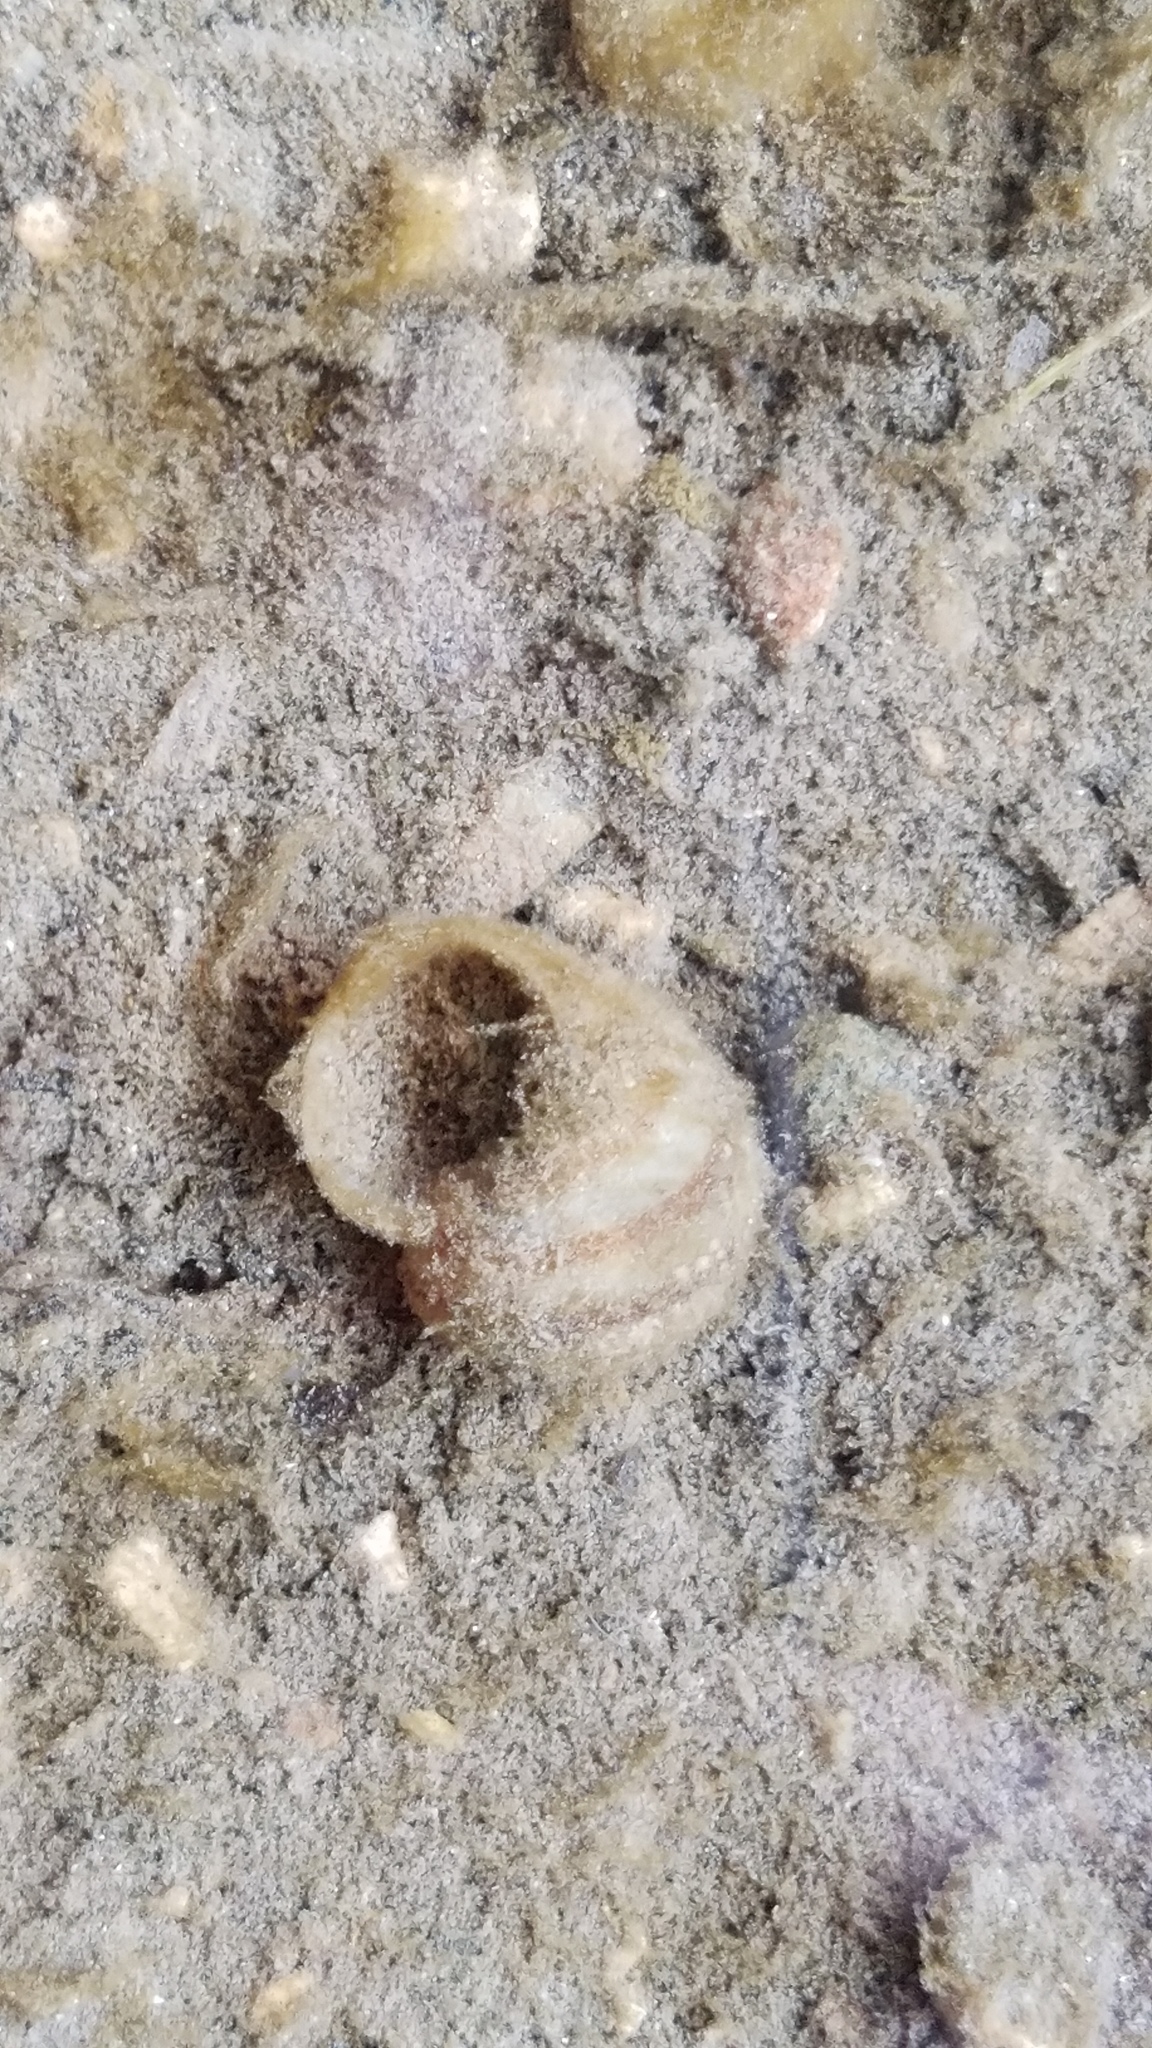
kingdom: Animalia
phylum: Mollusca
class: Gastropoda
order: Architaenioglossa
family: Viviparidae
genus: Callinina
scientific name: Callinina georgiana
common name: Banded mystery snail
